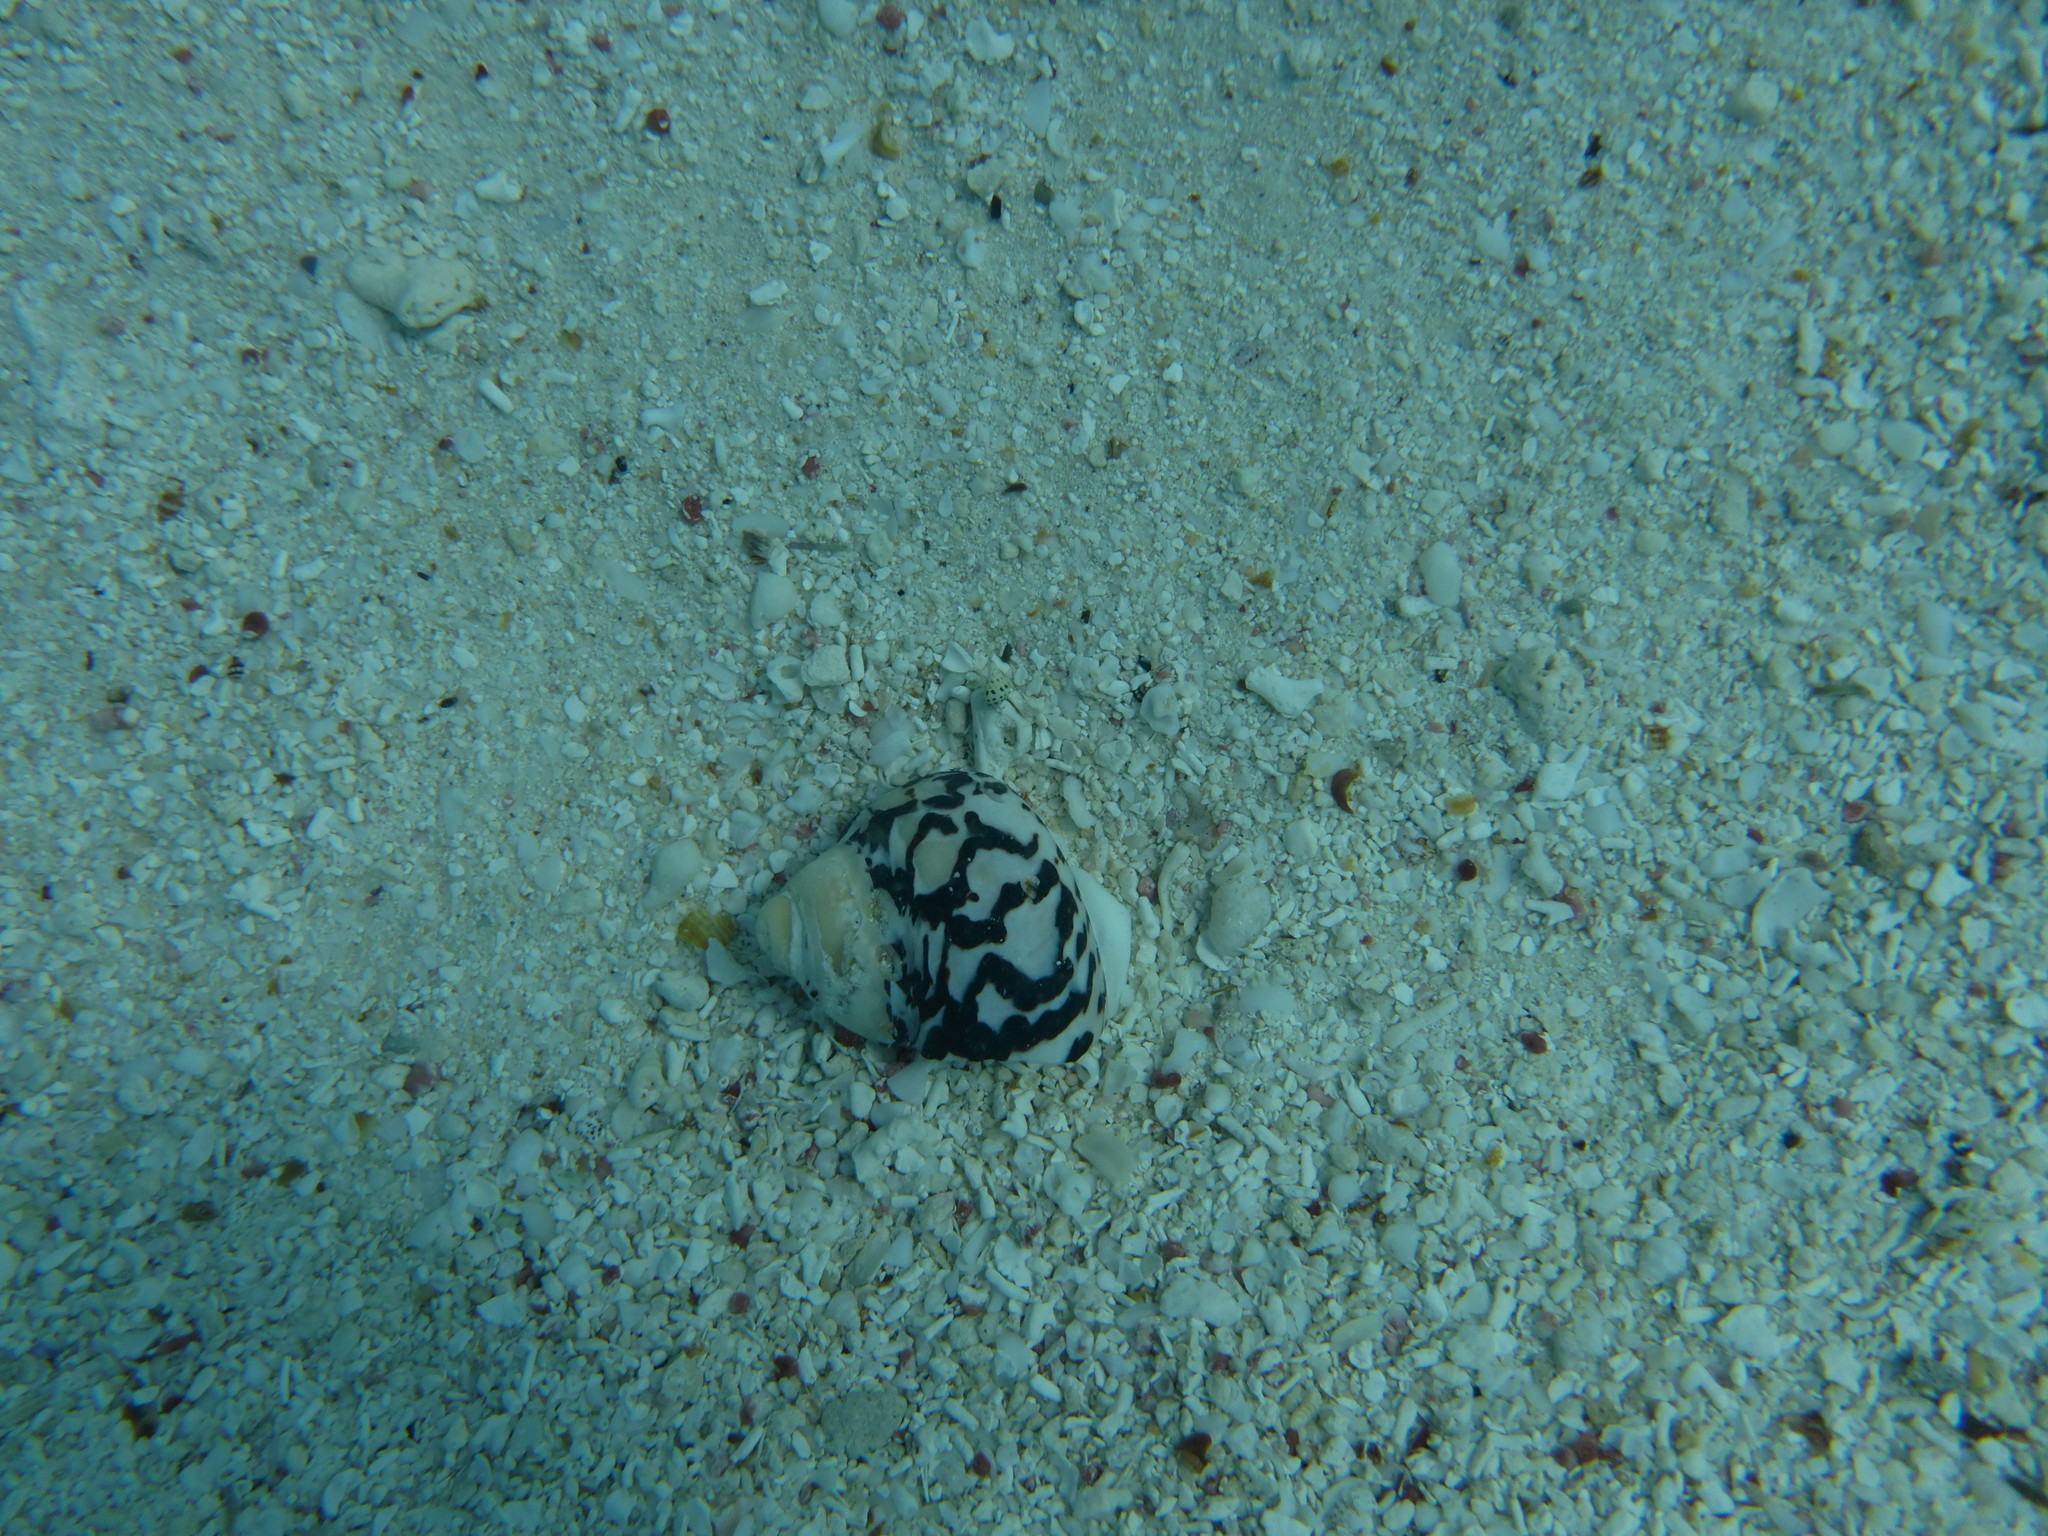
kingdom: Animalia
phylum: Mollusca
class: Gastropoda
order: Trochida
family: Tegulidae
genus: Cittarium
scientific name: Cittarium pica
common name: West indian topshell
